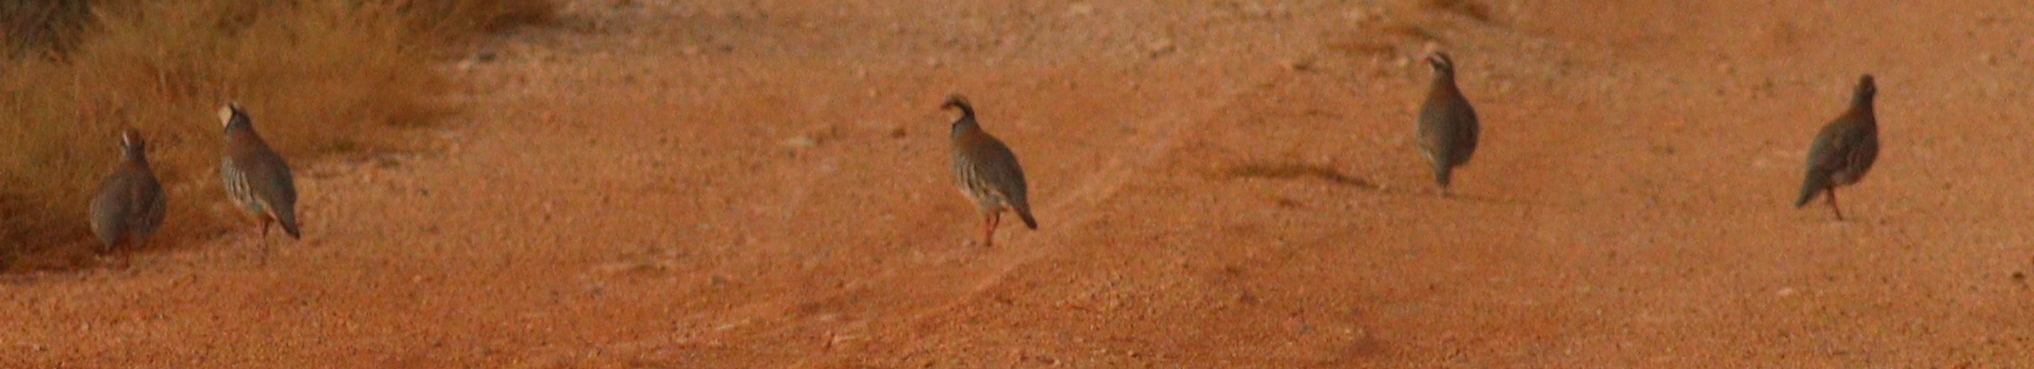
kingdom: Animalia
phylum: Chordata
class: Aves
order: Galliformes
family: Phasianidae
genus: Alectoris
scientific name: Alectoris rufa
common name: Red-legged partridge
